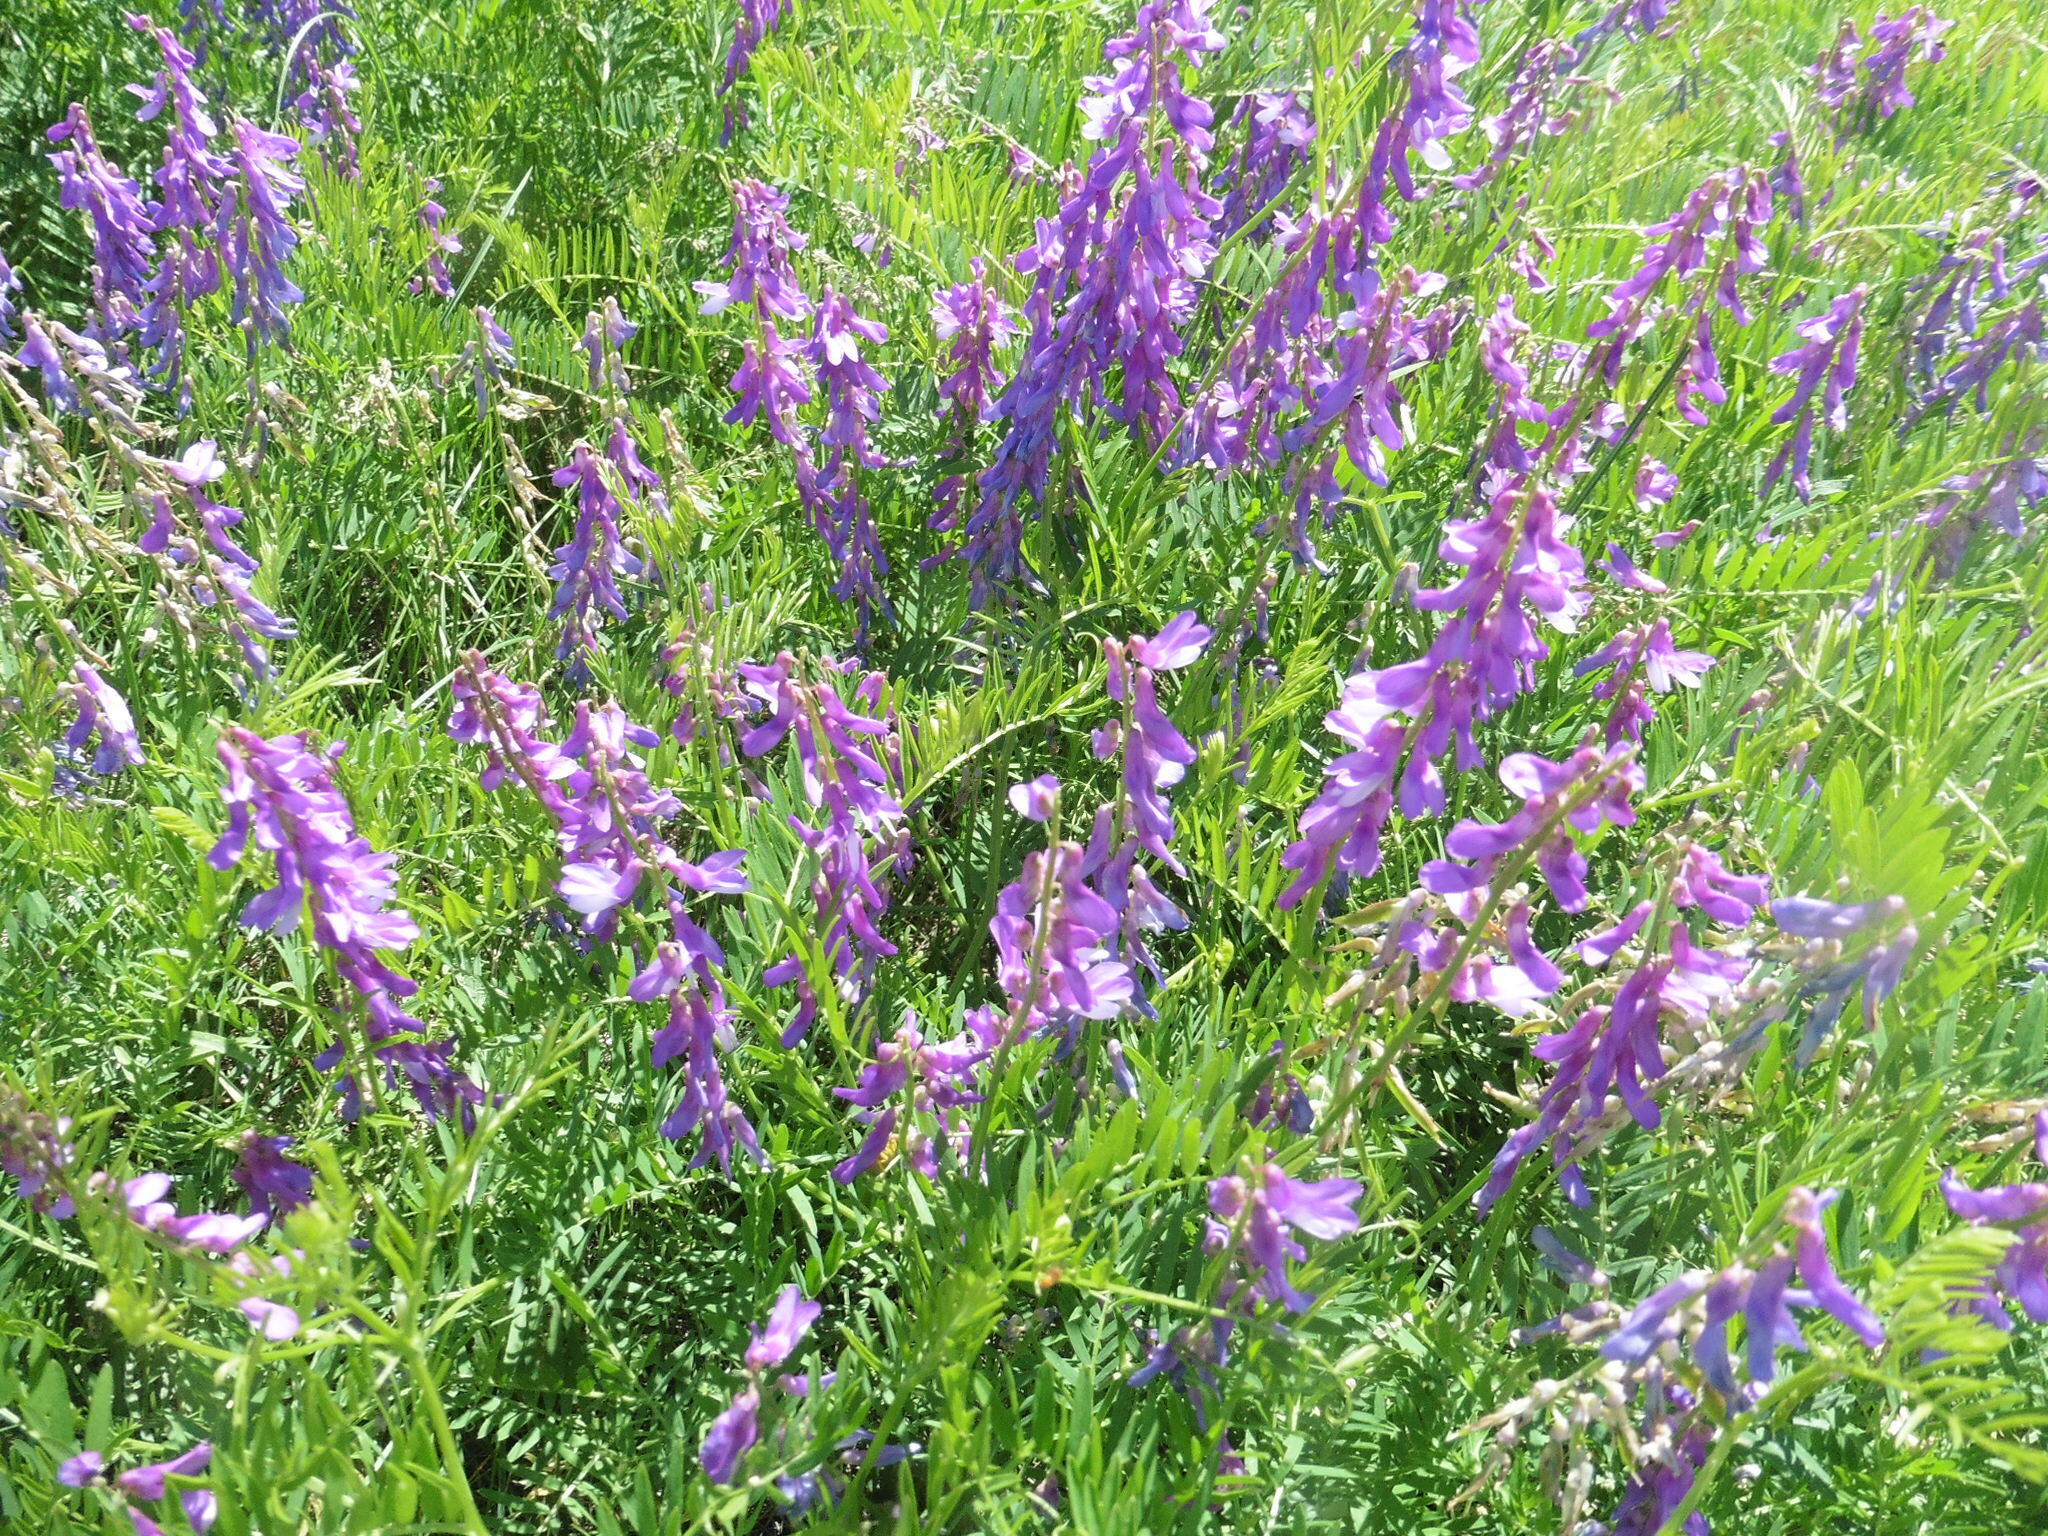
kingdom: Plantae
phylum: Tracheophyta
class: Magnoliopsida
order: Fabales
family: Fabaceae
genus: Vicia
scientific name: Vicia tenuifolia
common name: Fine-leaved vetch
